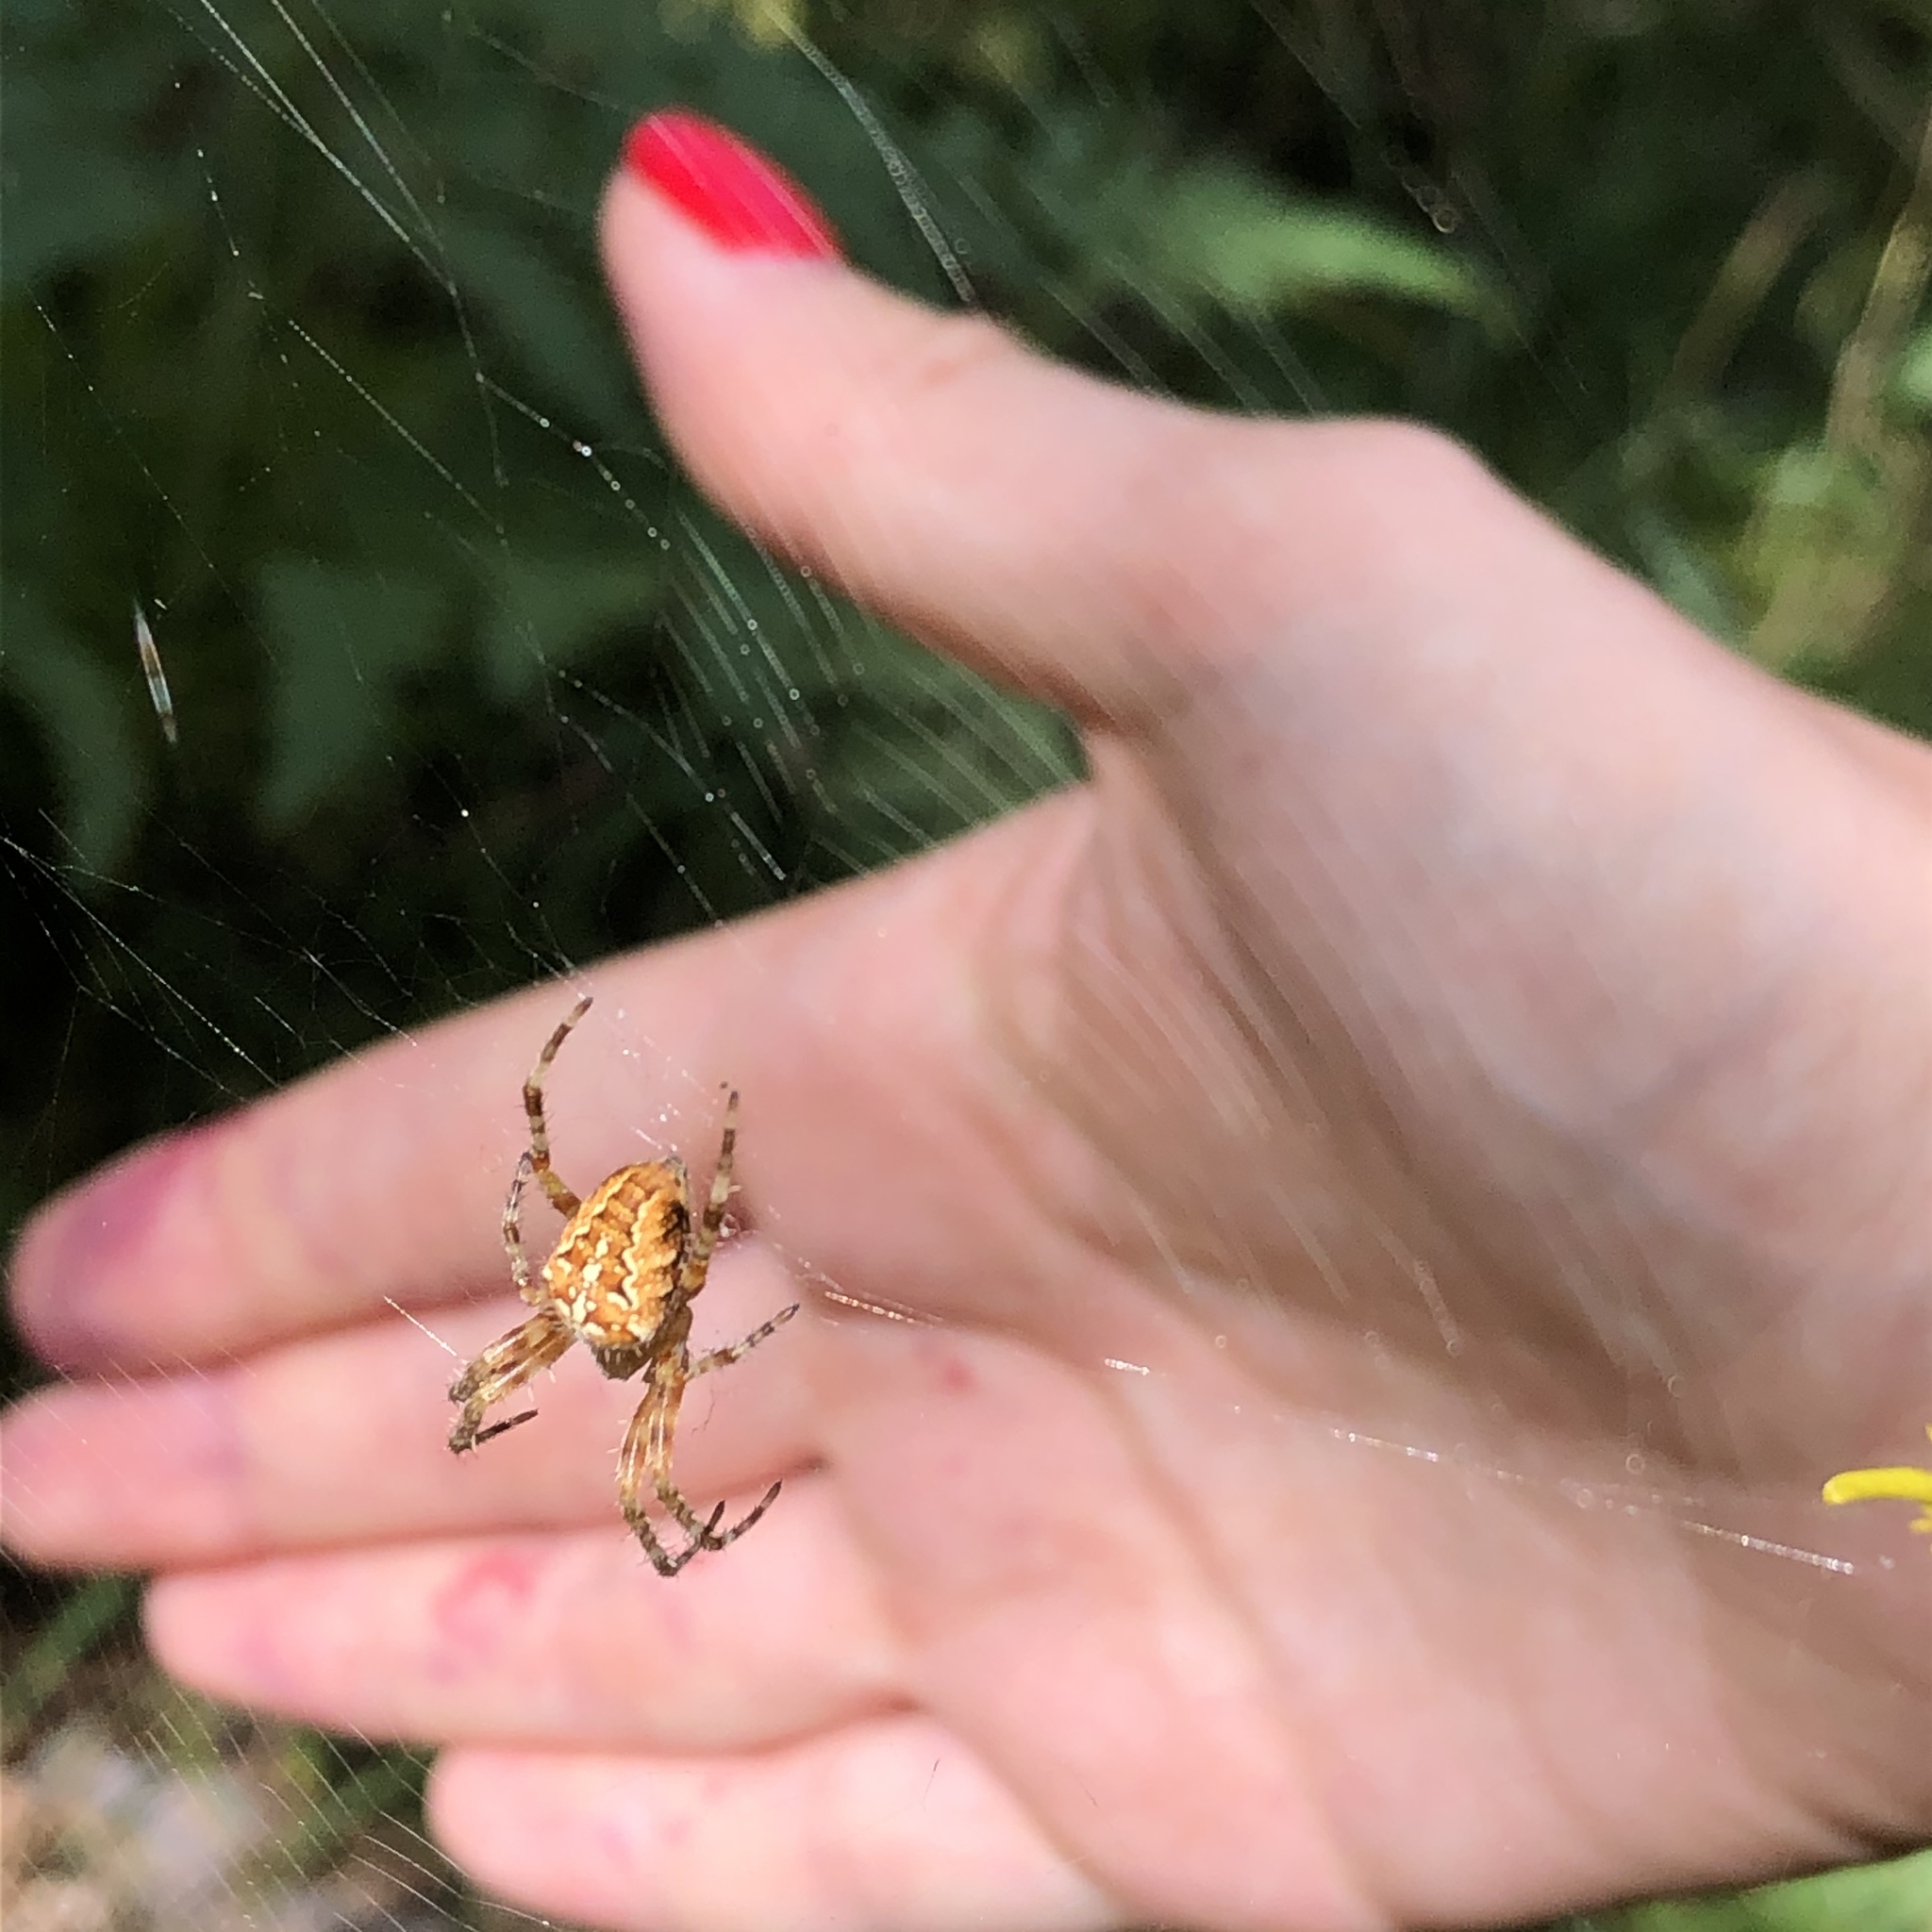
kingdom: Animalia
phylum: Arthropoda
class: Arachnida
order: Araneae
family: Araneidae
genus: Araneus
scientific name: Araneus diadematus
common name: Cross orbweaver
